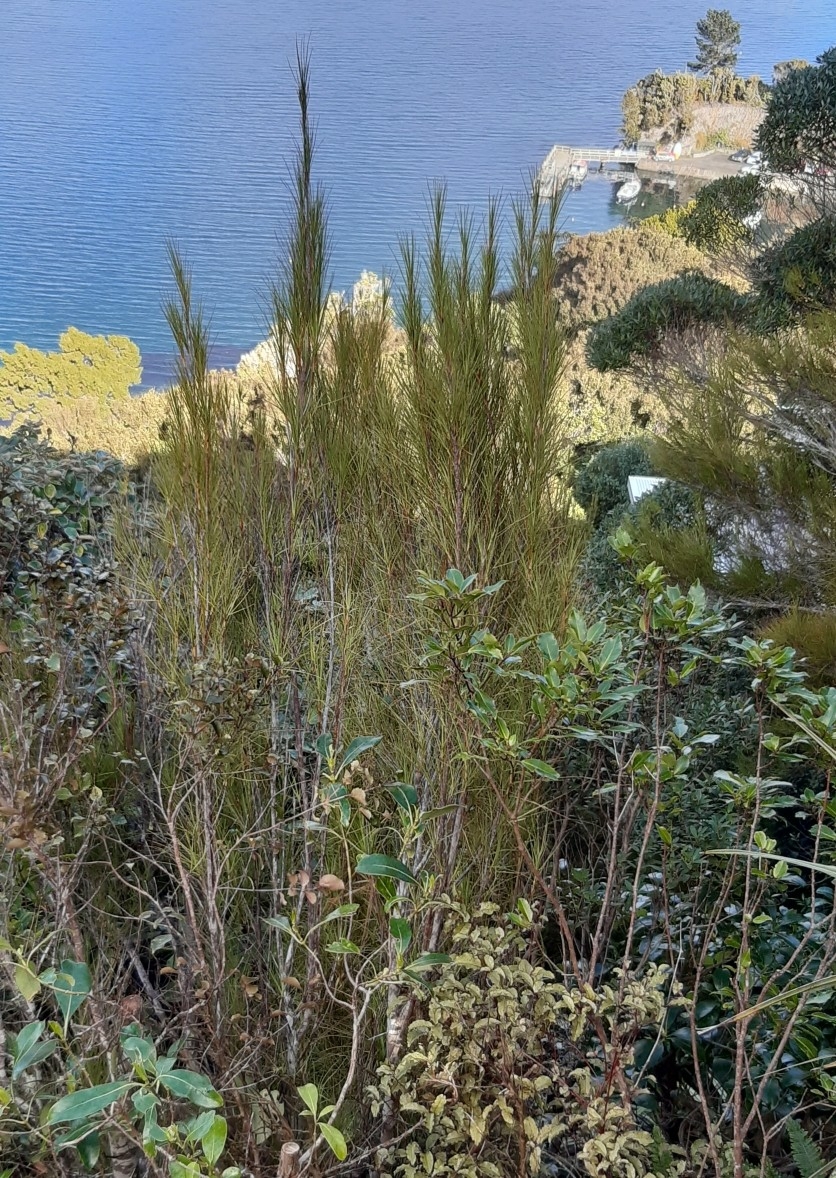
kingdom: Plantae
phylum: Tracheophyta
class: Magnoliopsida
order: Ericales
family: Ericaceae
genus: Dracophyllum
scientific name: Dracophyllum longifolium
